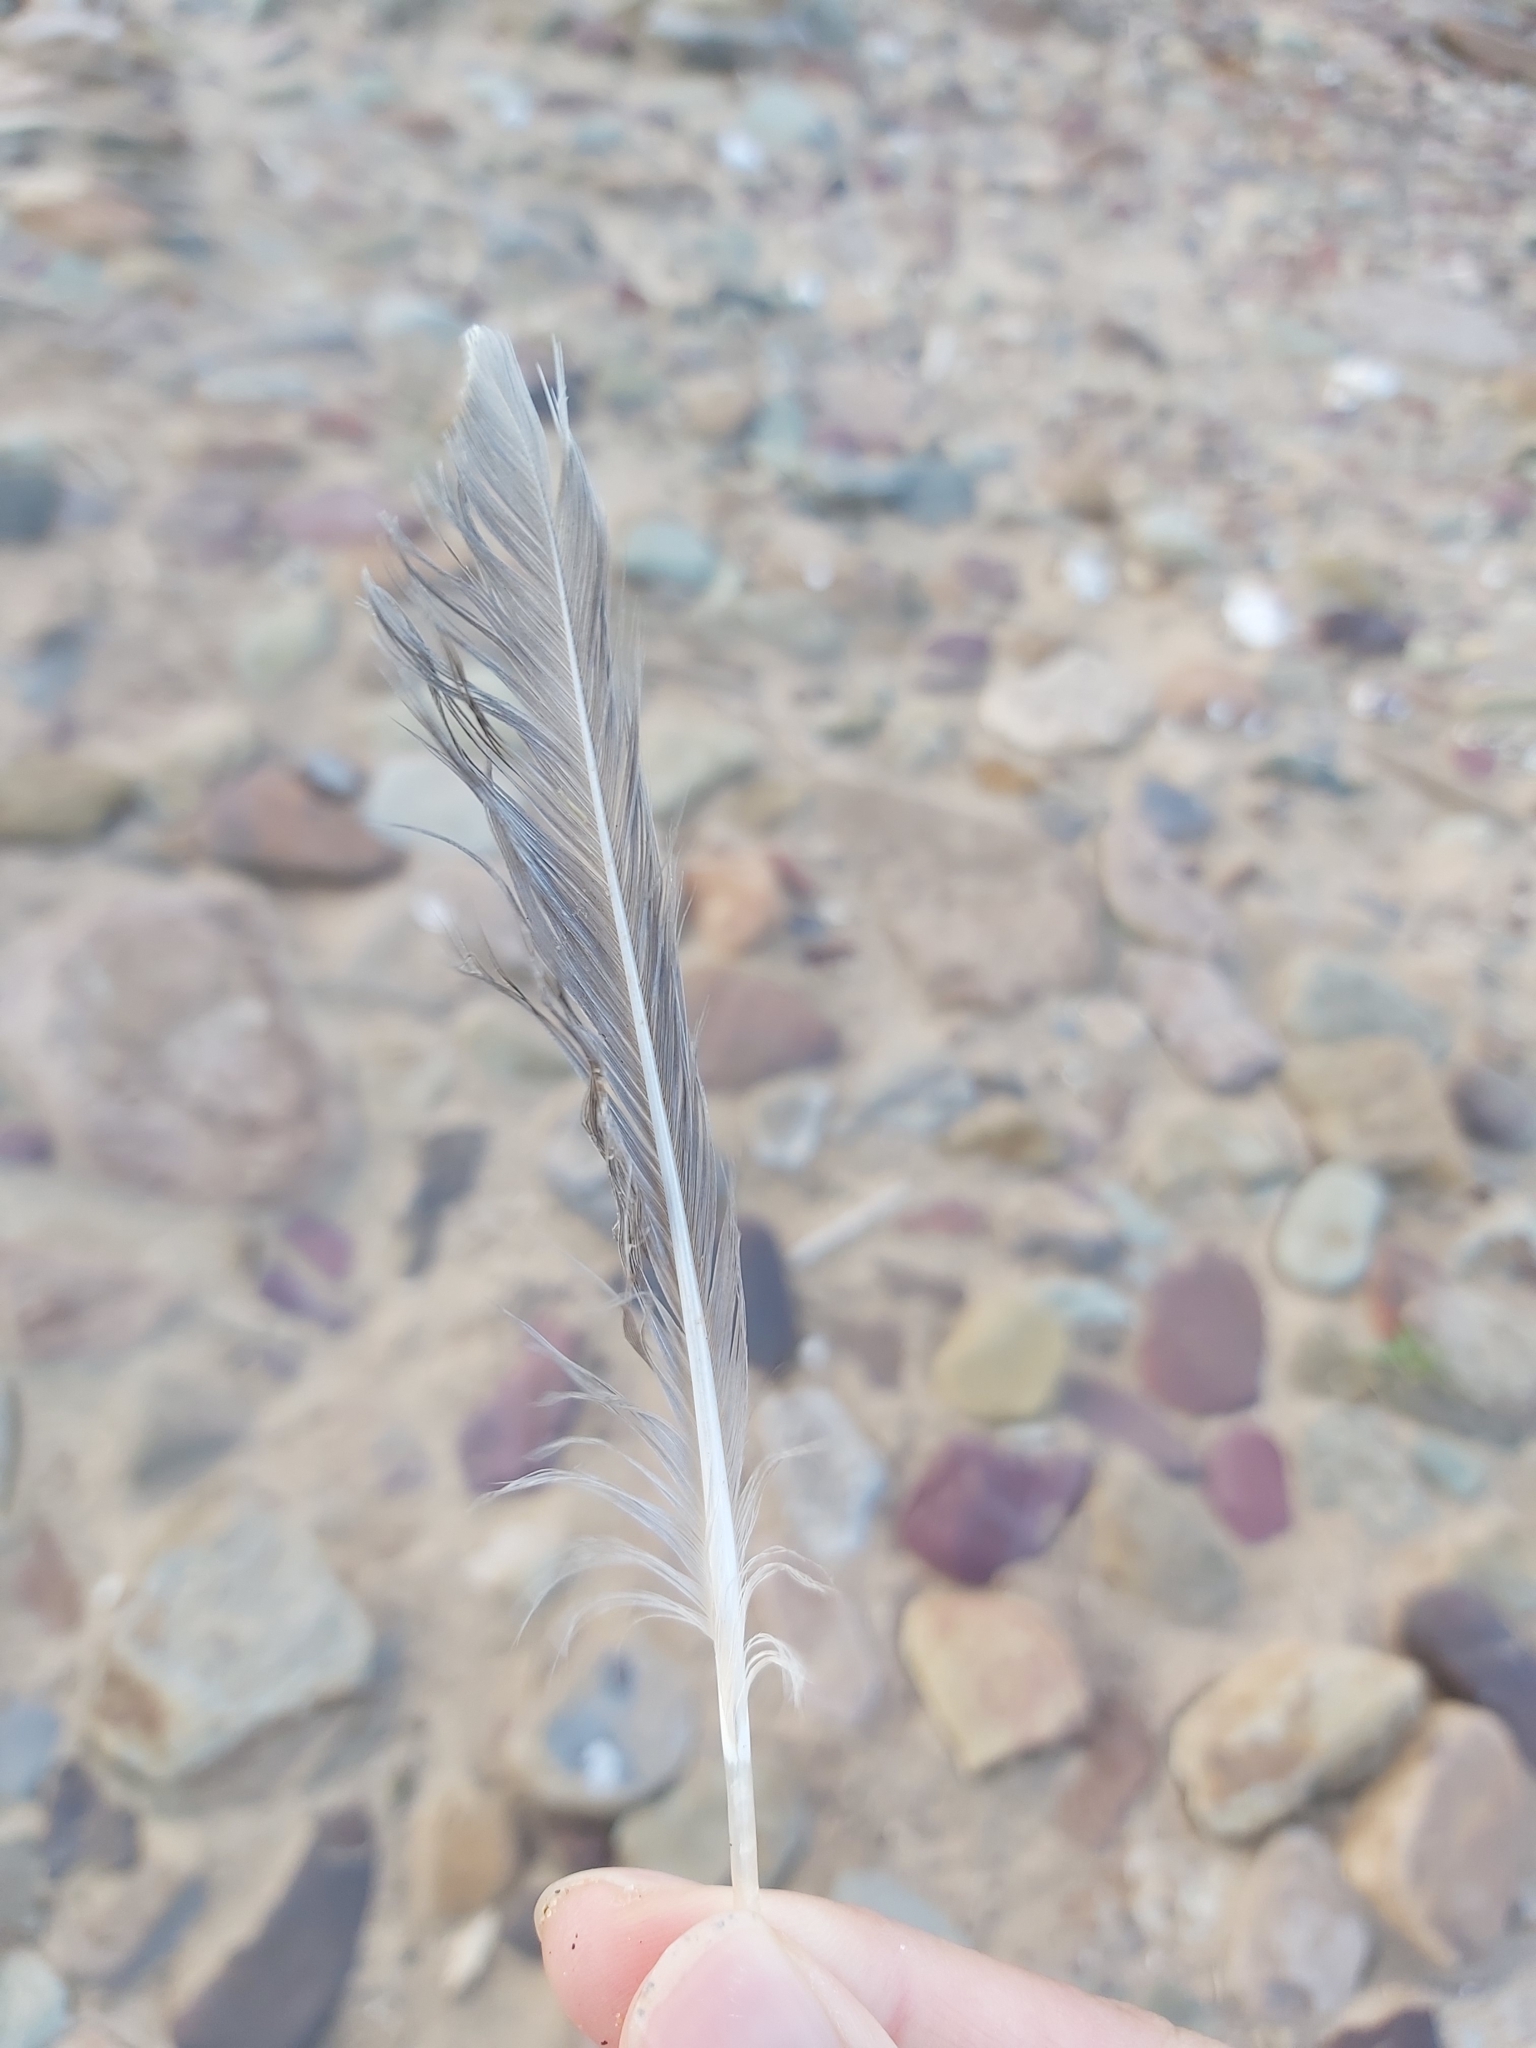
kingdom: Animalia
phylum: Chordata
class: Aves
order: Charadriiformes
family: Laridae
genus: Chroicocephalus
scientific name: Chroicocephalus novaehollandiae
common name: Silver gull
